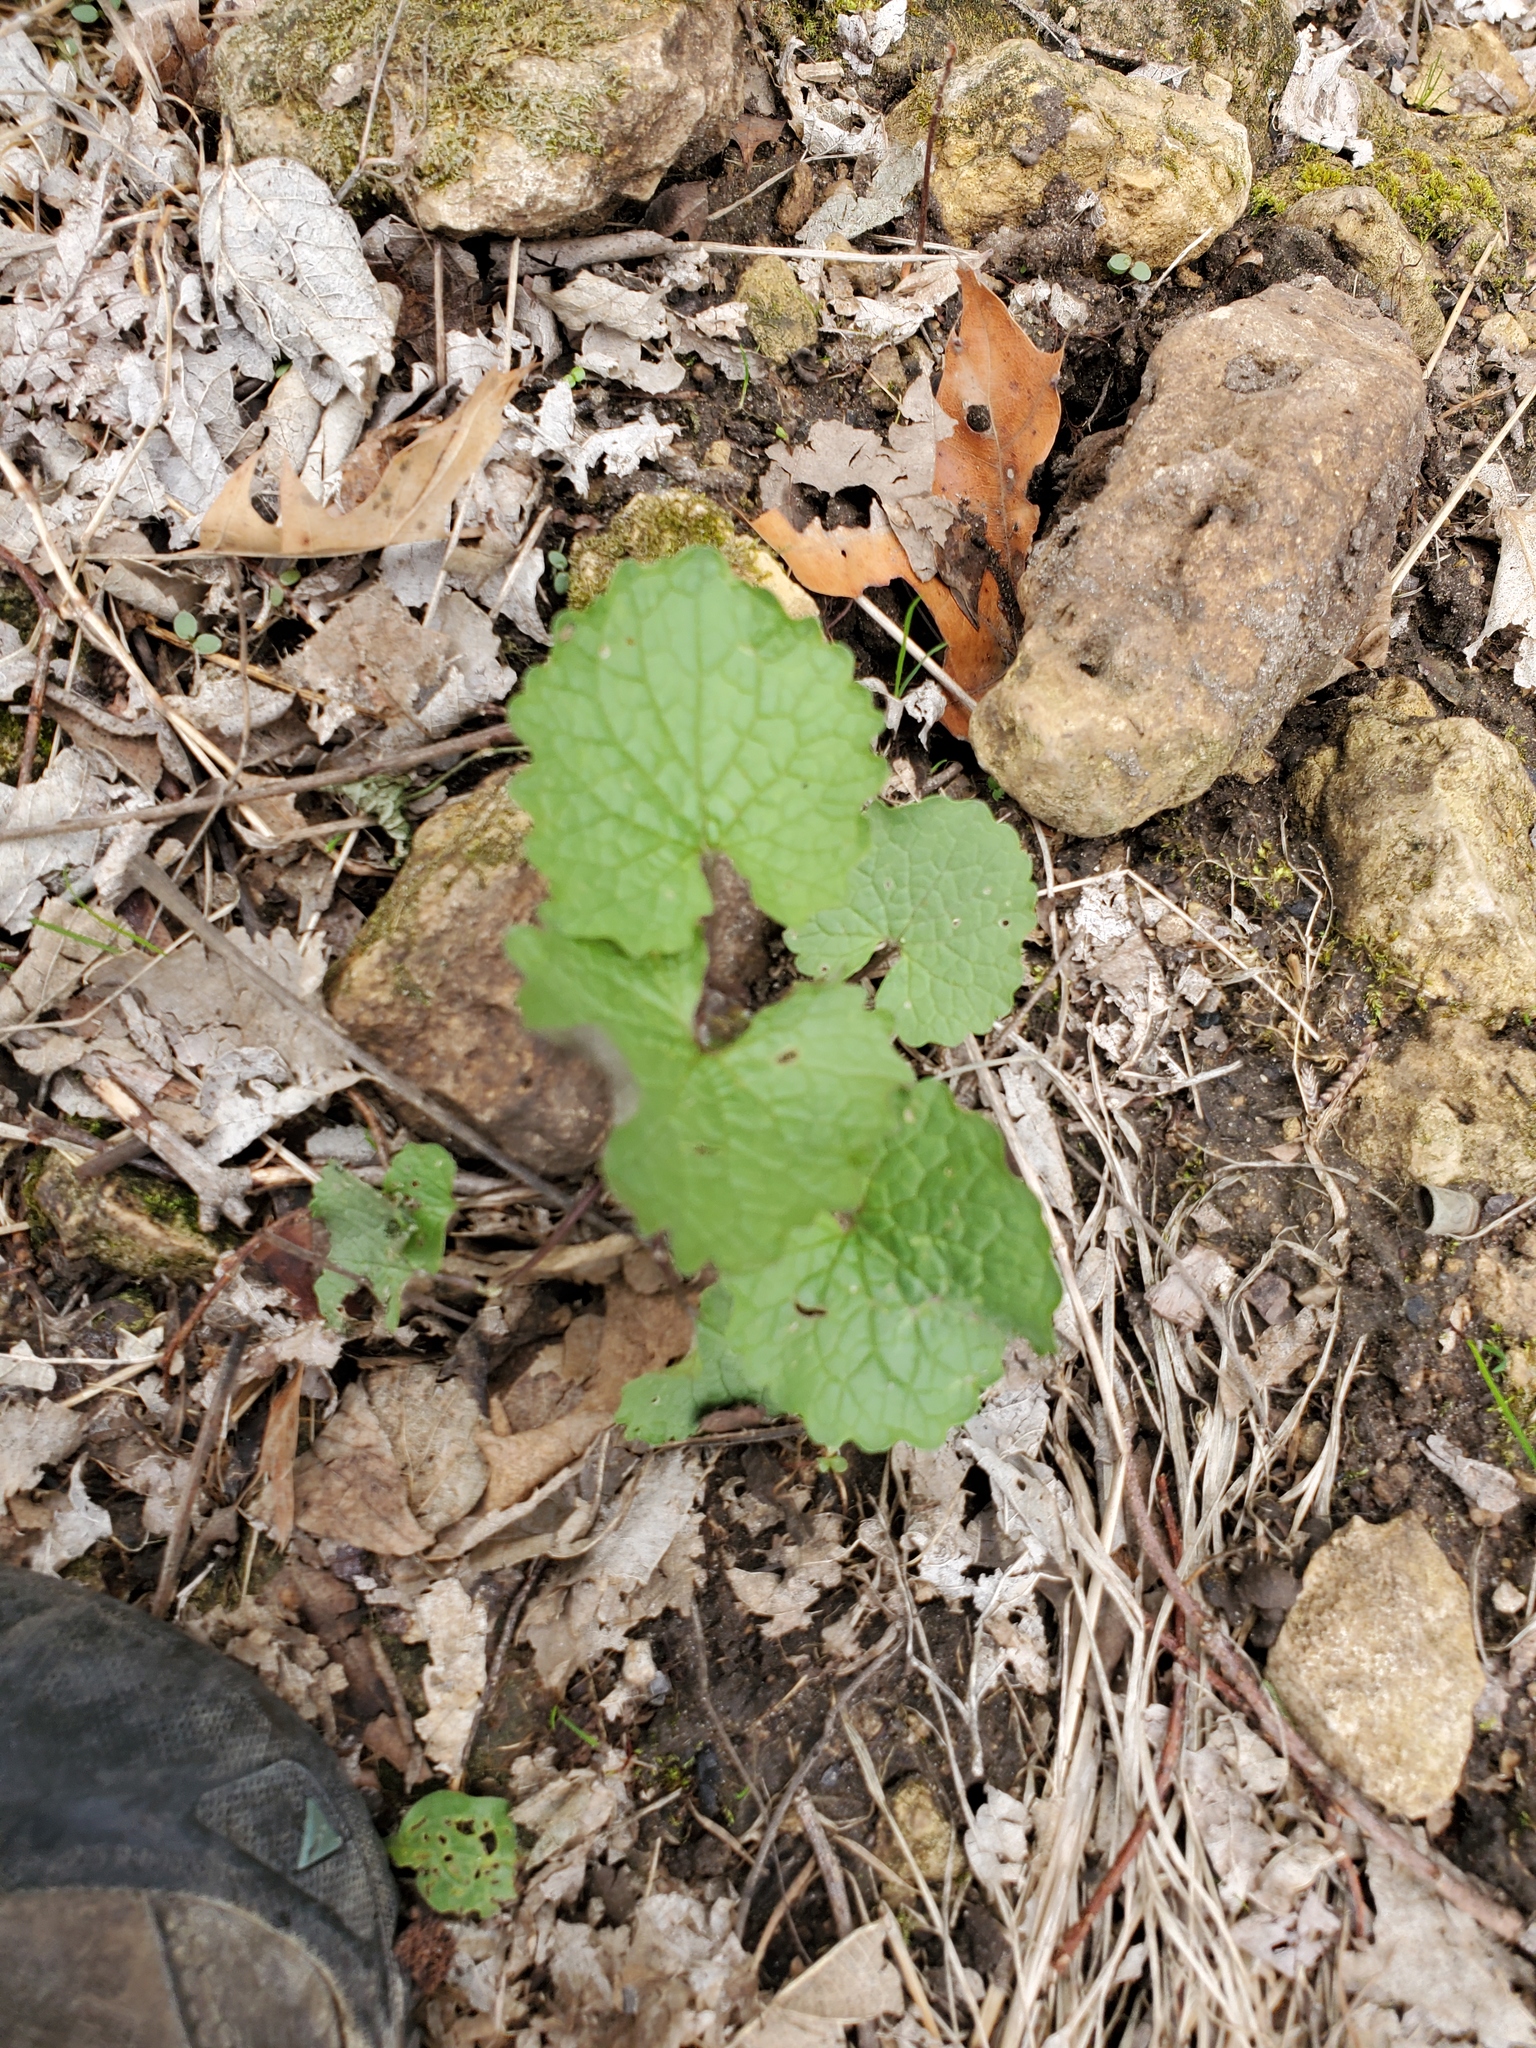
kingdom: Plantae
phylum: Tracheophyta
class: Magnoliopsida
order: Brassicales
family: Brassicaceae
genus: Alliaria
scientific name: Alliaria petiolata
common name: Garlic mustard
